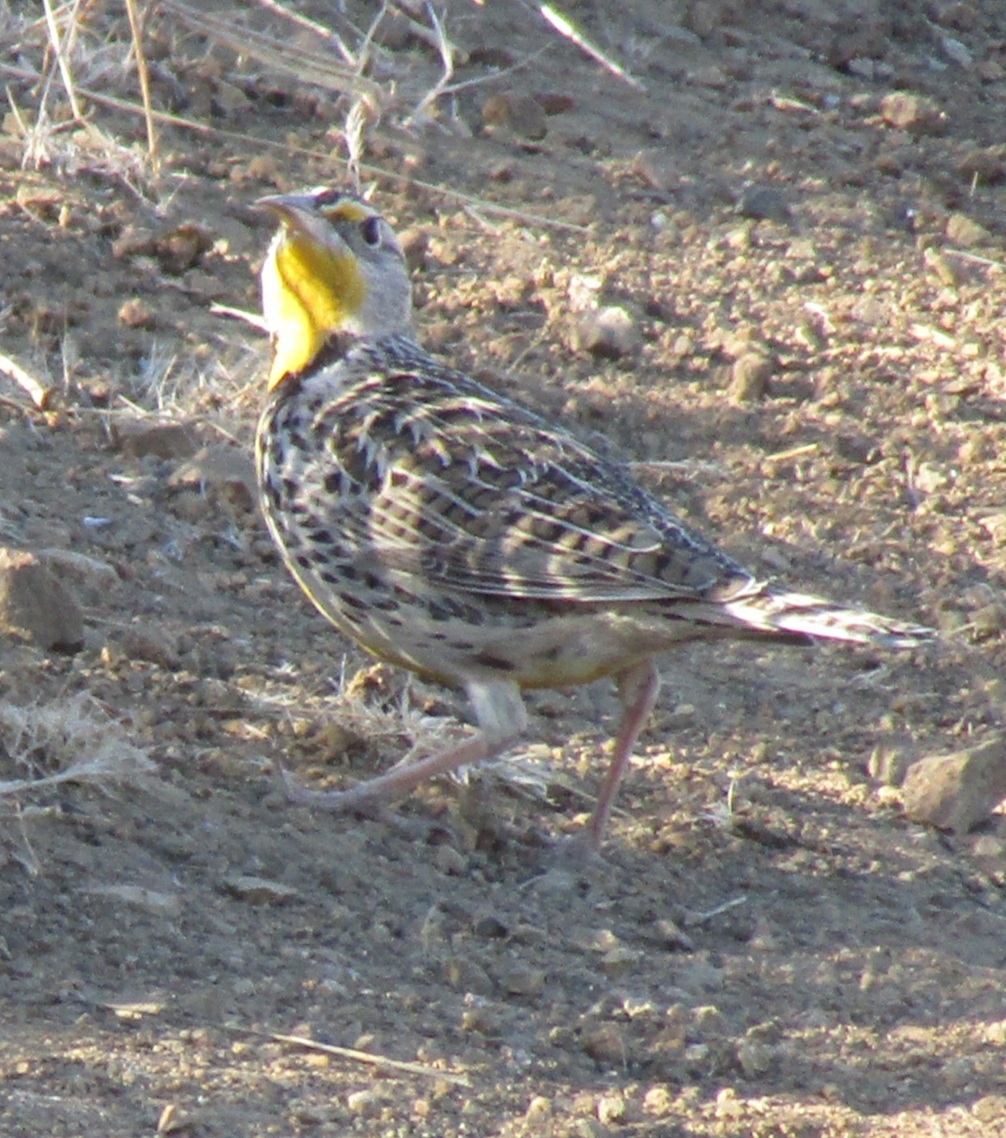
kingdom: Animalia
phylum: Chordata
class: Aves
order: Passeriformes
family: Icteridae
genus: Sturnella
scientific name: Sturnella neglecta
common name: Western meadowlark
